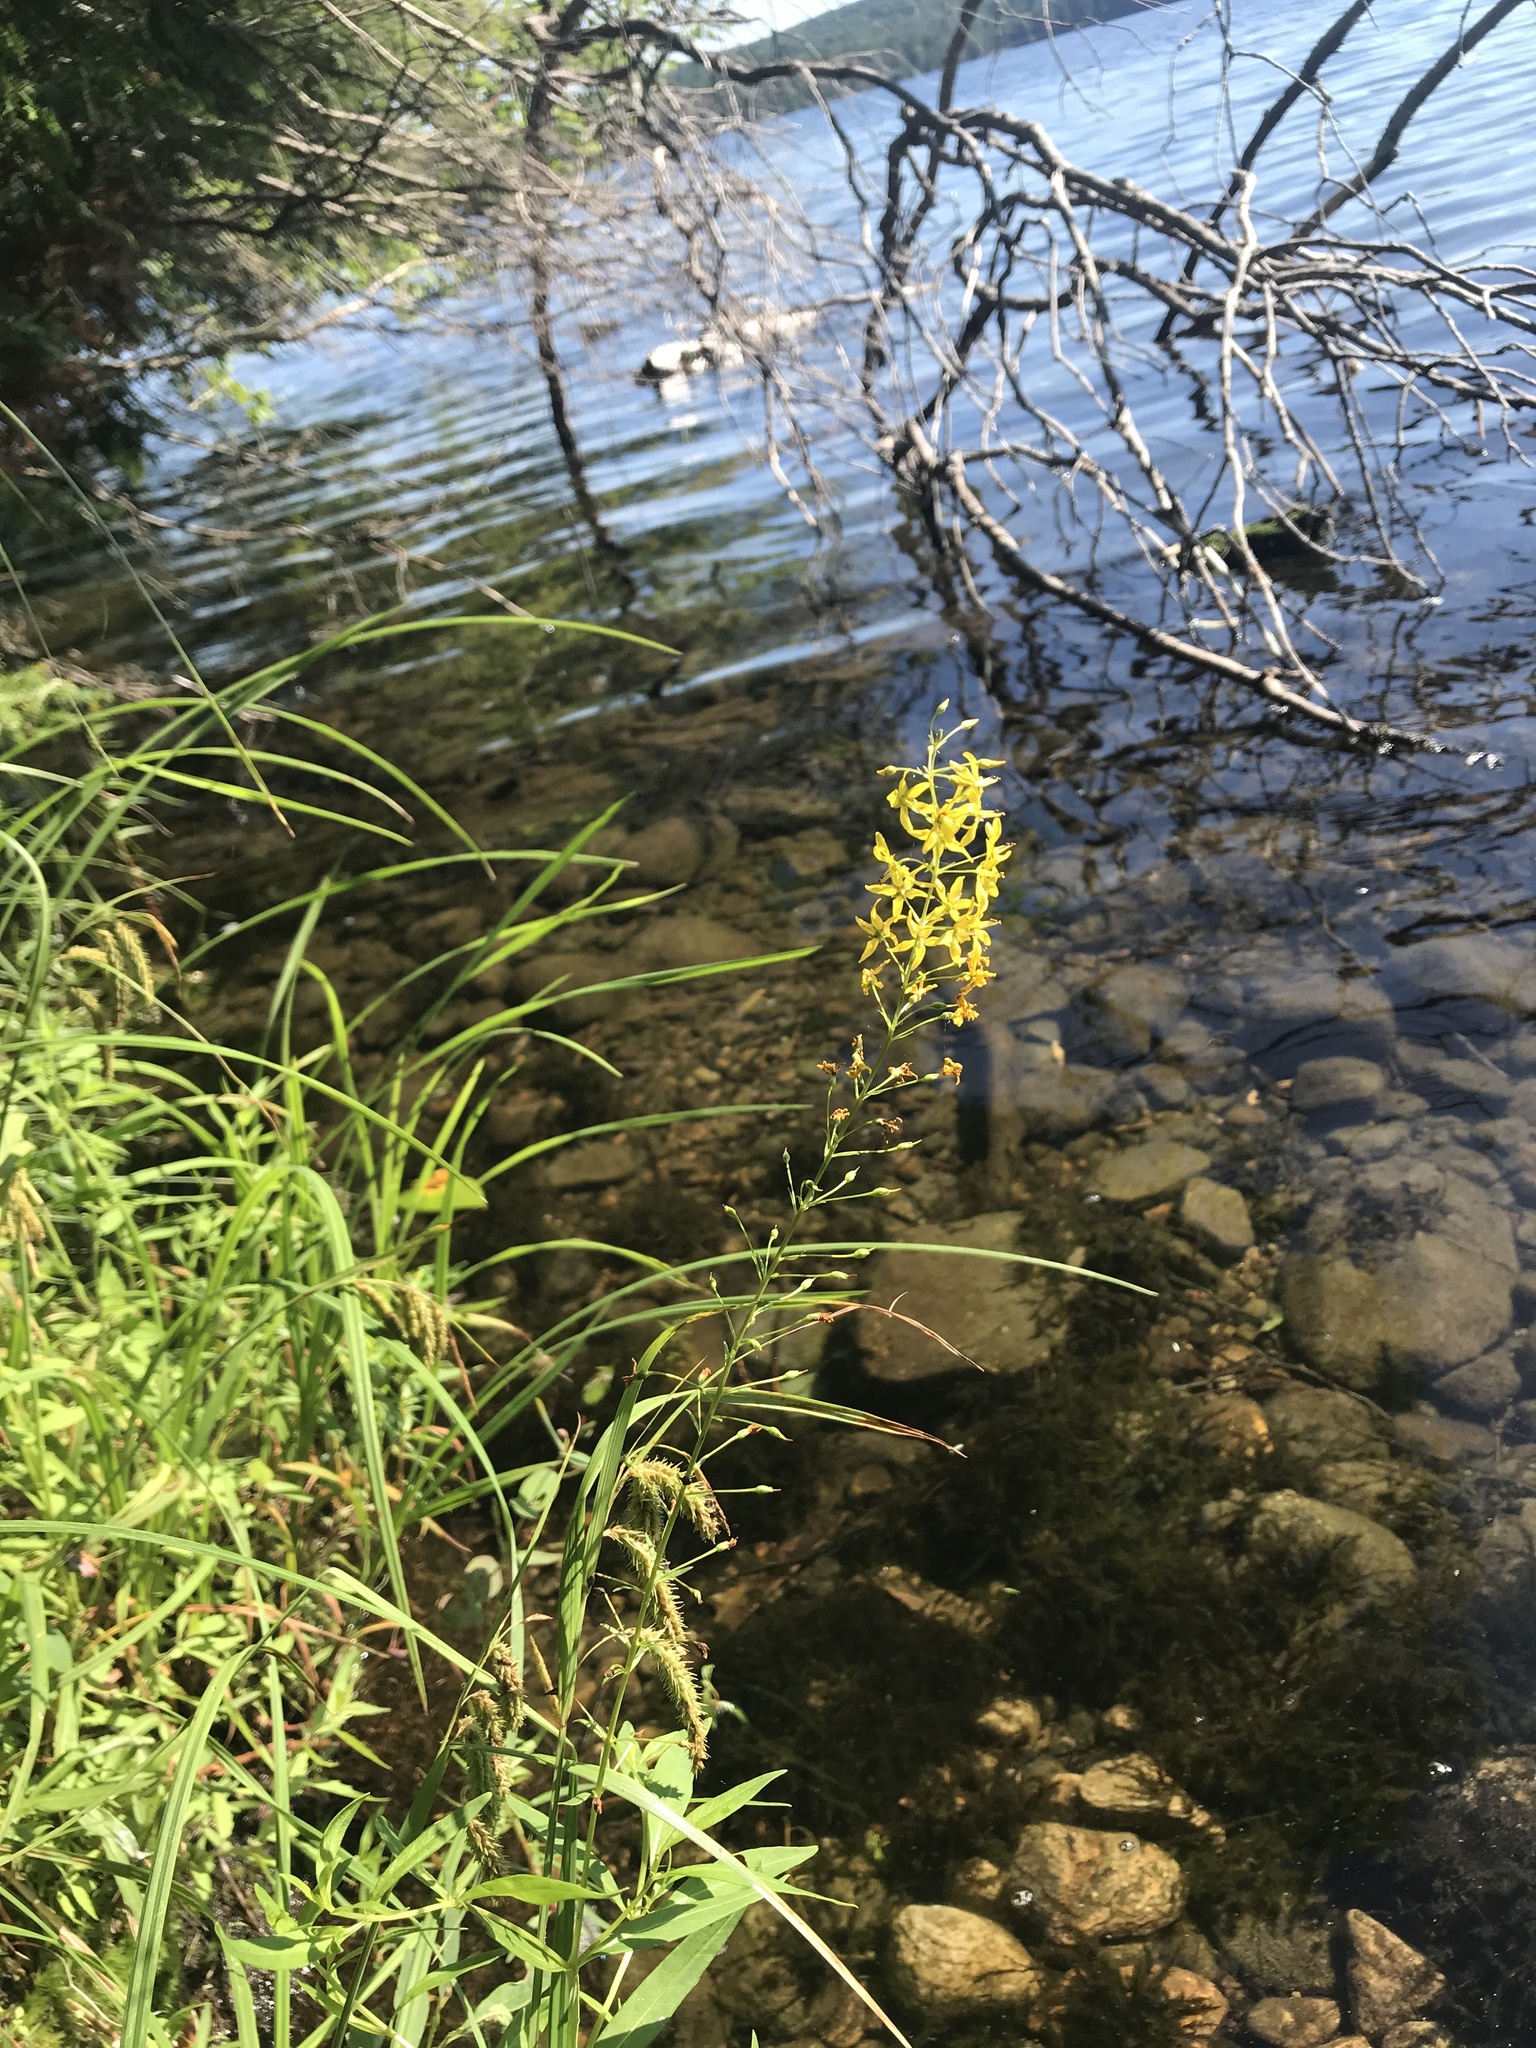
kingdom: Plantae
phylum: Tracheophyta
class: Magnoliopsida
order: Ericales
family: Primulaceae
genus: Lysimachia
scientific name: Lysimachia terrestris
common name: Lake loosestrife
